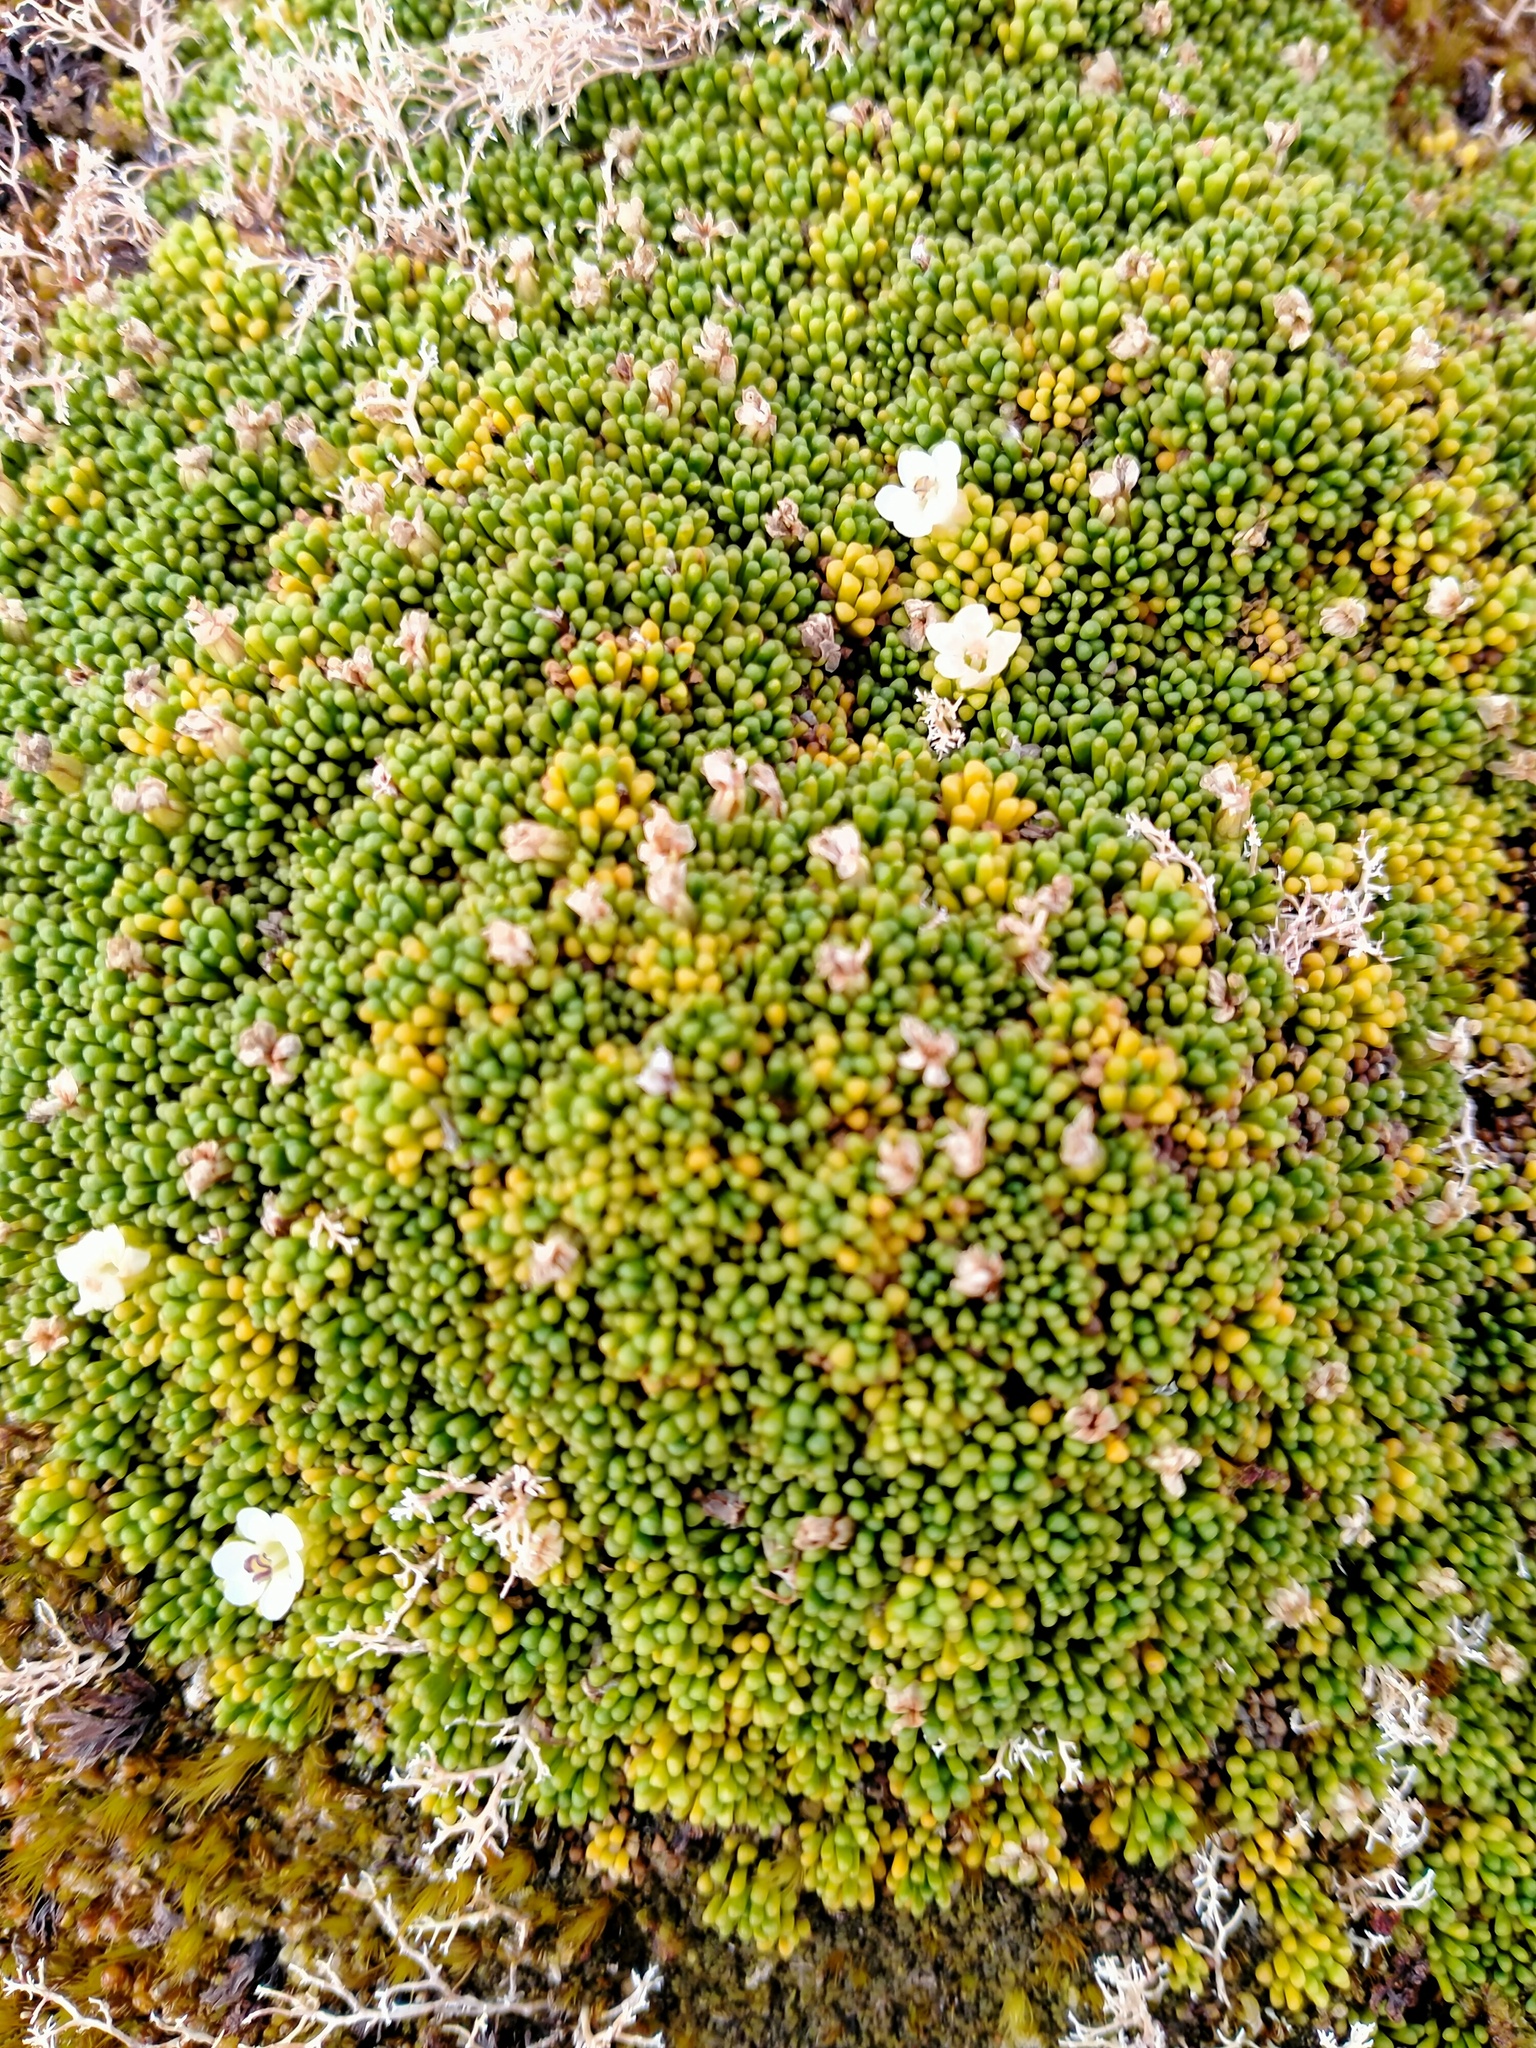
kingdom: Plantae
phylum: Tracheophyta
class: Magnoliopsida
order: Asterales
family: Stylidiaceae
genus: Phyllachne
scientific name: Phyllachne colensoi
